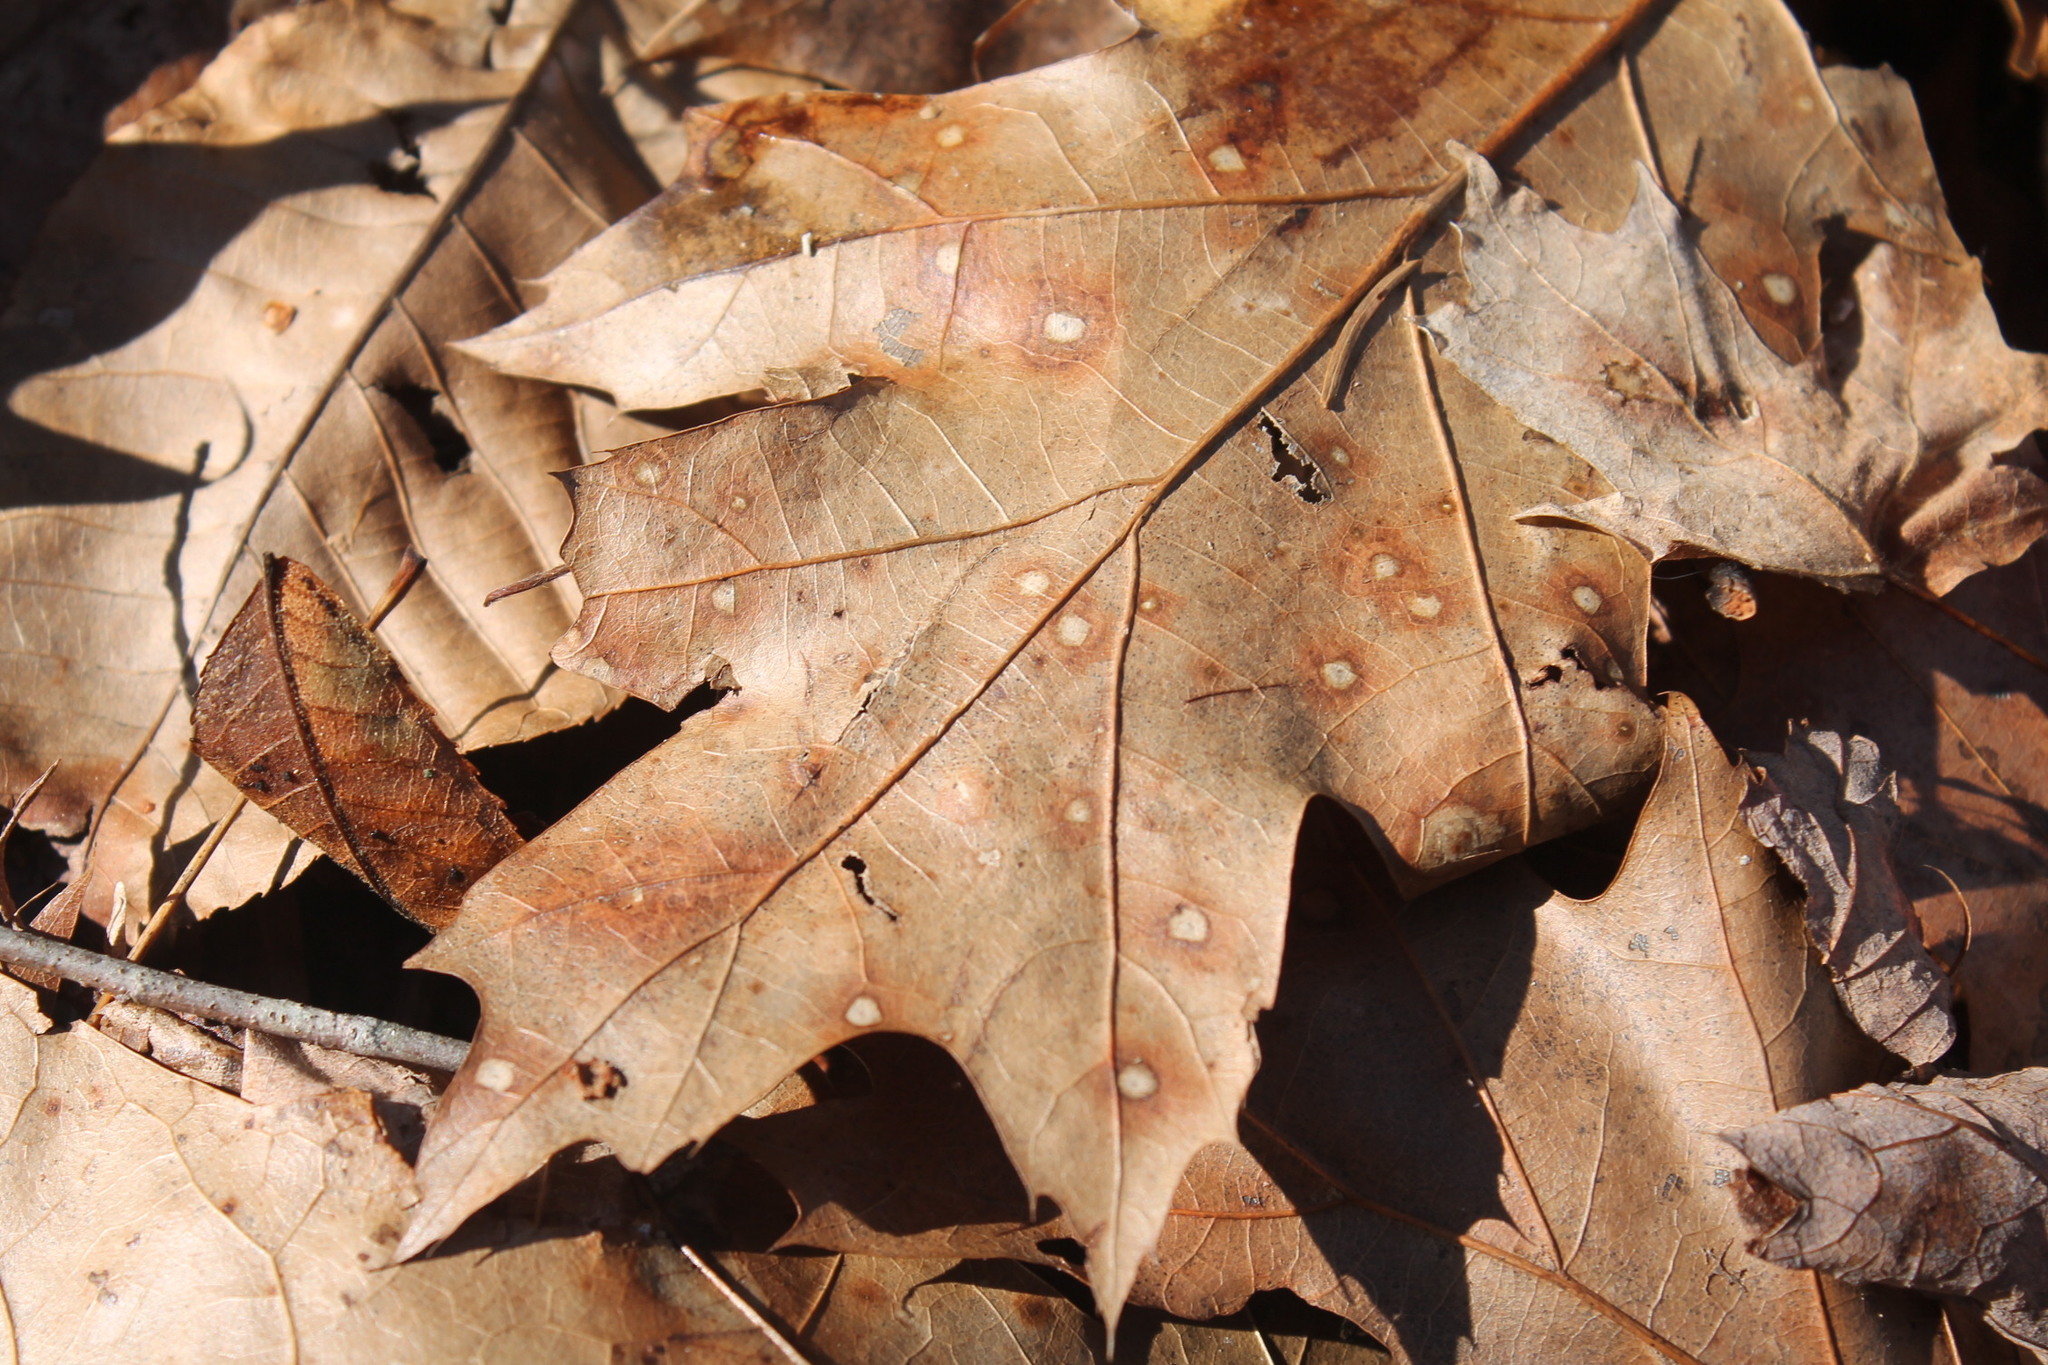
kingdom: Fungi
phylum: Ascomycota
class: Sordariomycetes
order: Diaporthales
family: Melanconidaceae
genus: Dicarpella
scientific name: Dicarpella dryina
